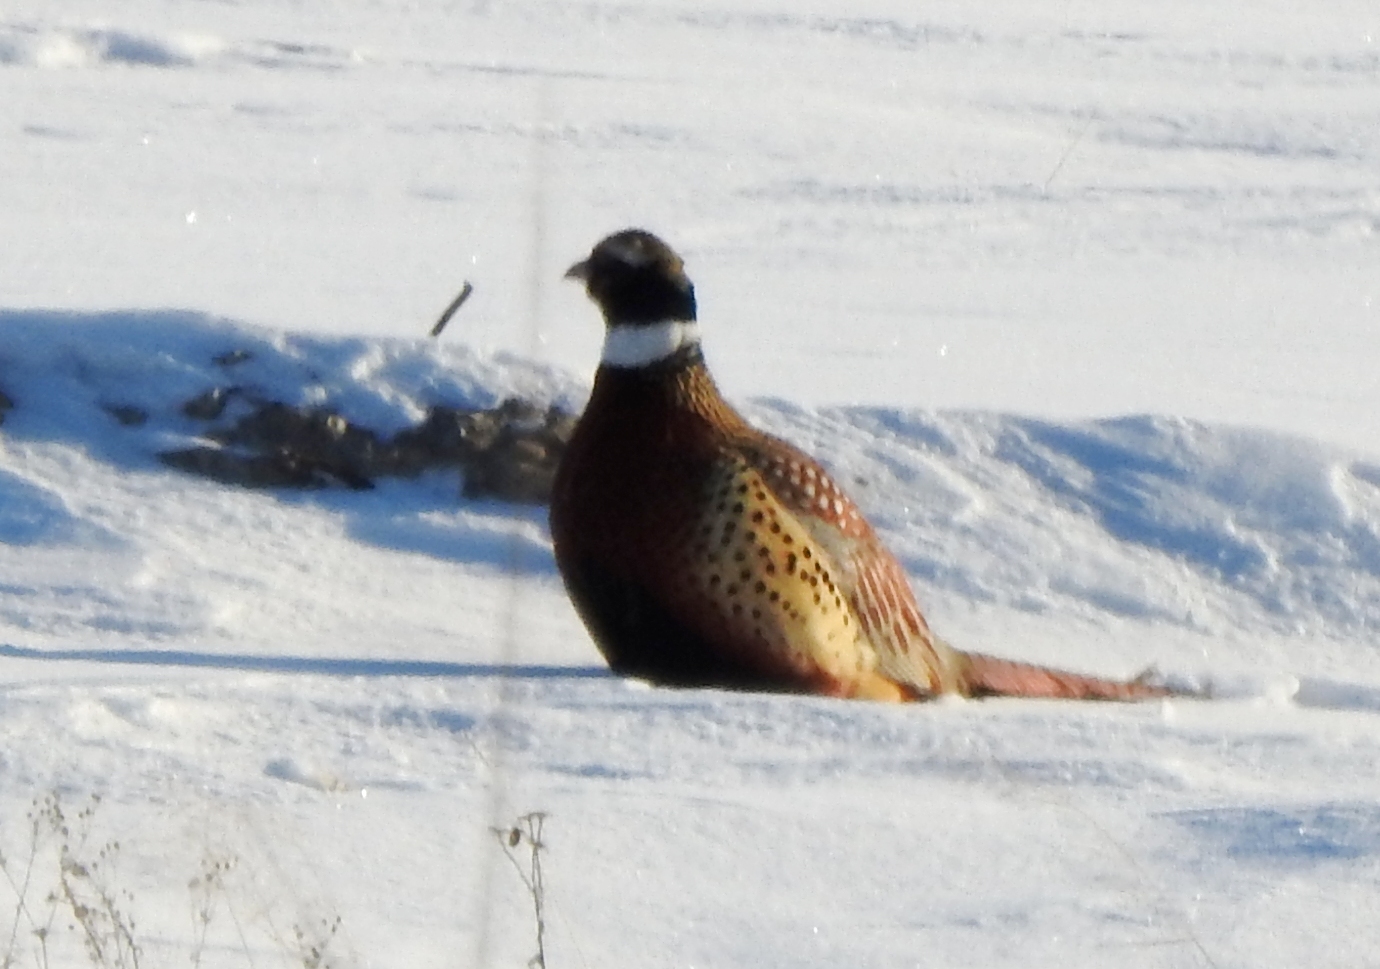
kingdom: Animalia
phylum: Chordata
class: Aves
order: Galliformes
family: Phasianidae
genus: Phasianus
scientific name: Phasianus colchicus
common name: Common pheasant
